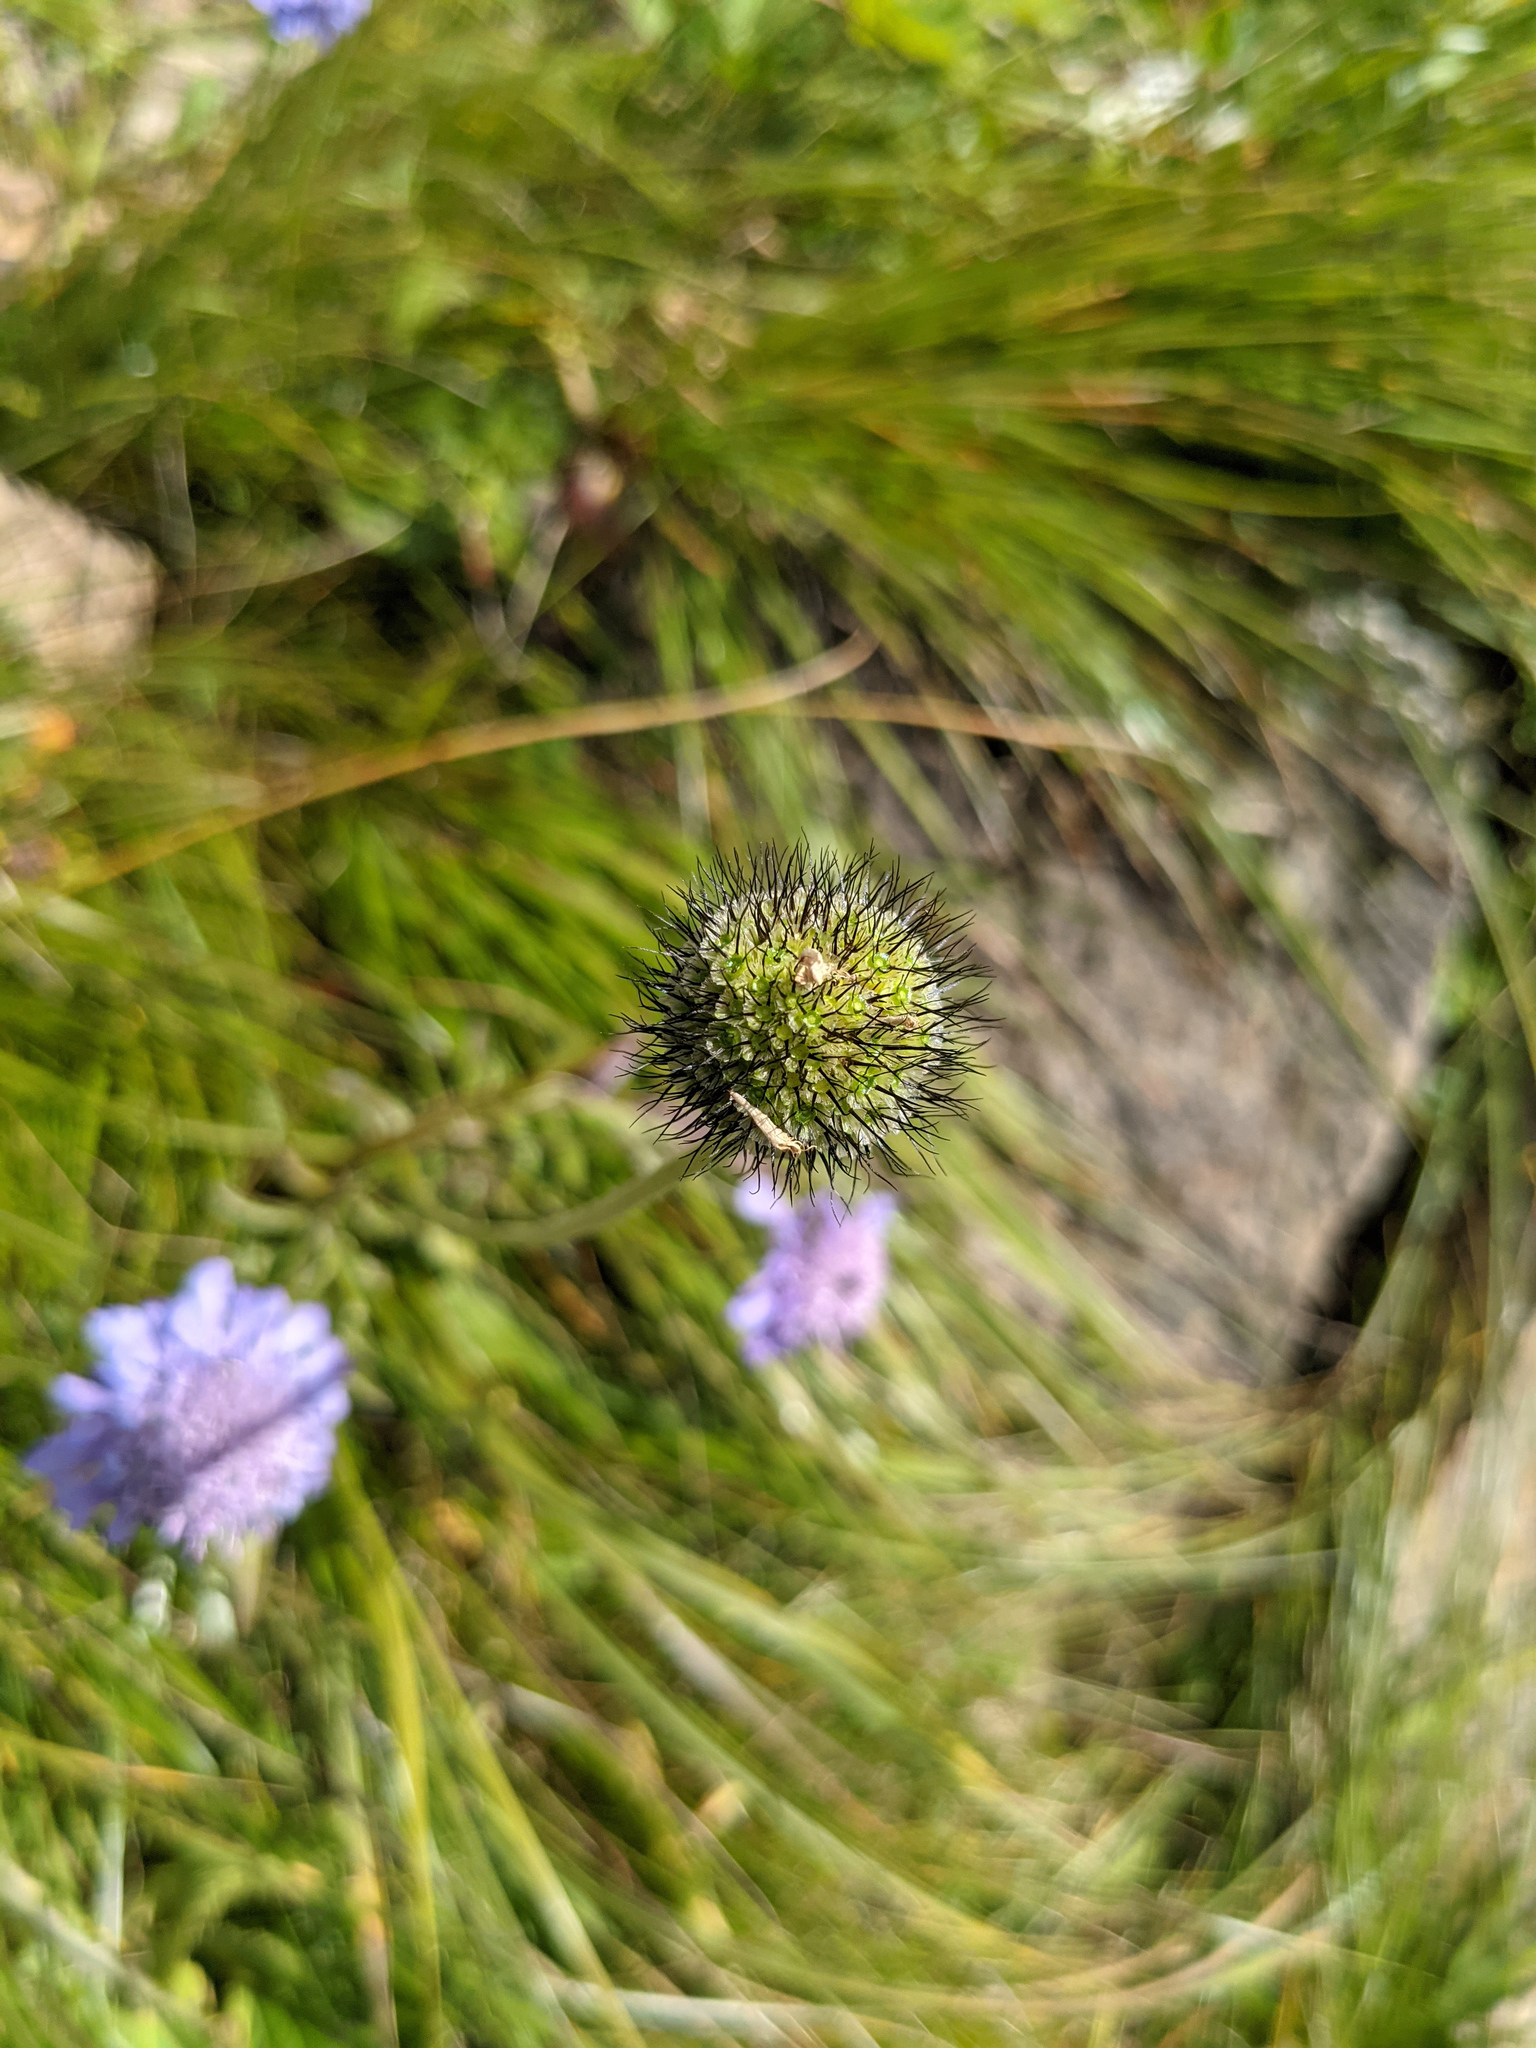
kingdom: Plantae
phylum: Tracheophyta
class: Magnoliopsida
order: Dipsacales
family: Caprifoliaceae
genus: Scabiosa
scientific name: Scabiosa lucida
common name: Shining scabious
